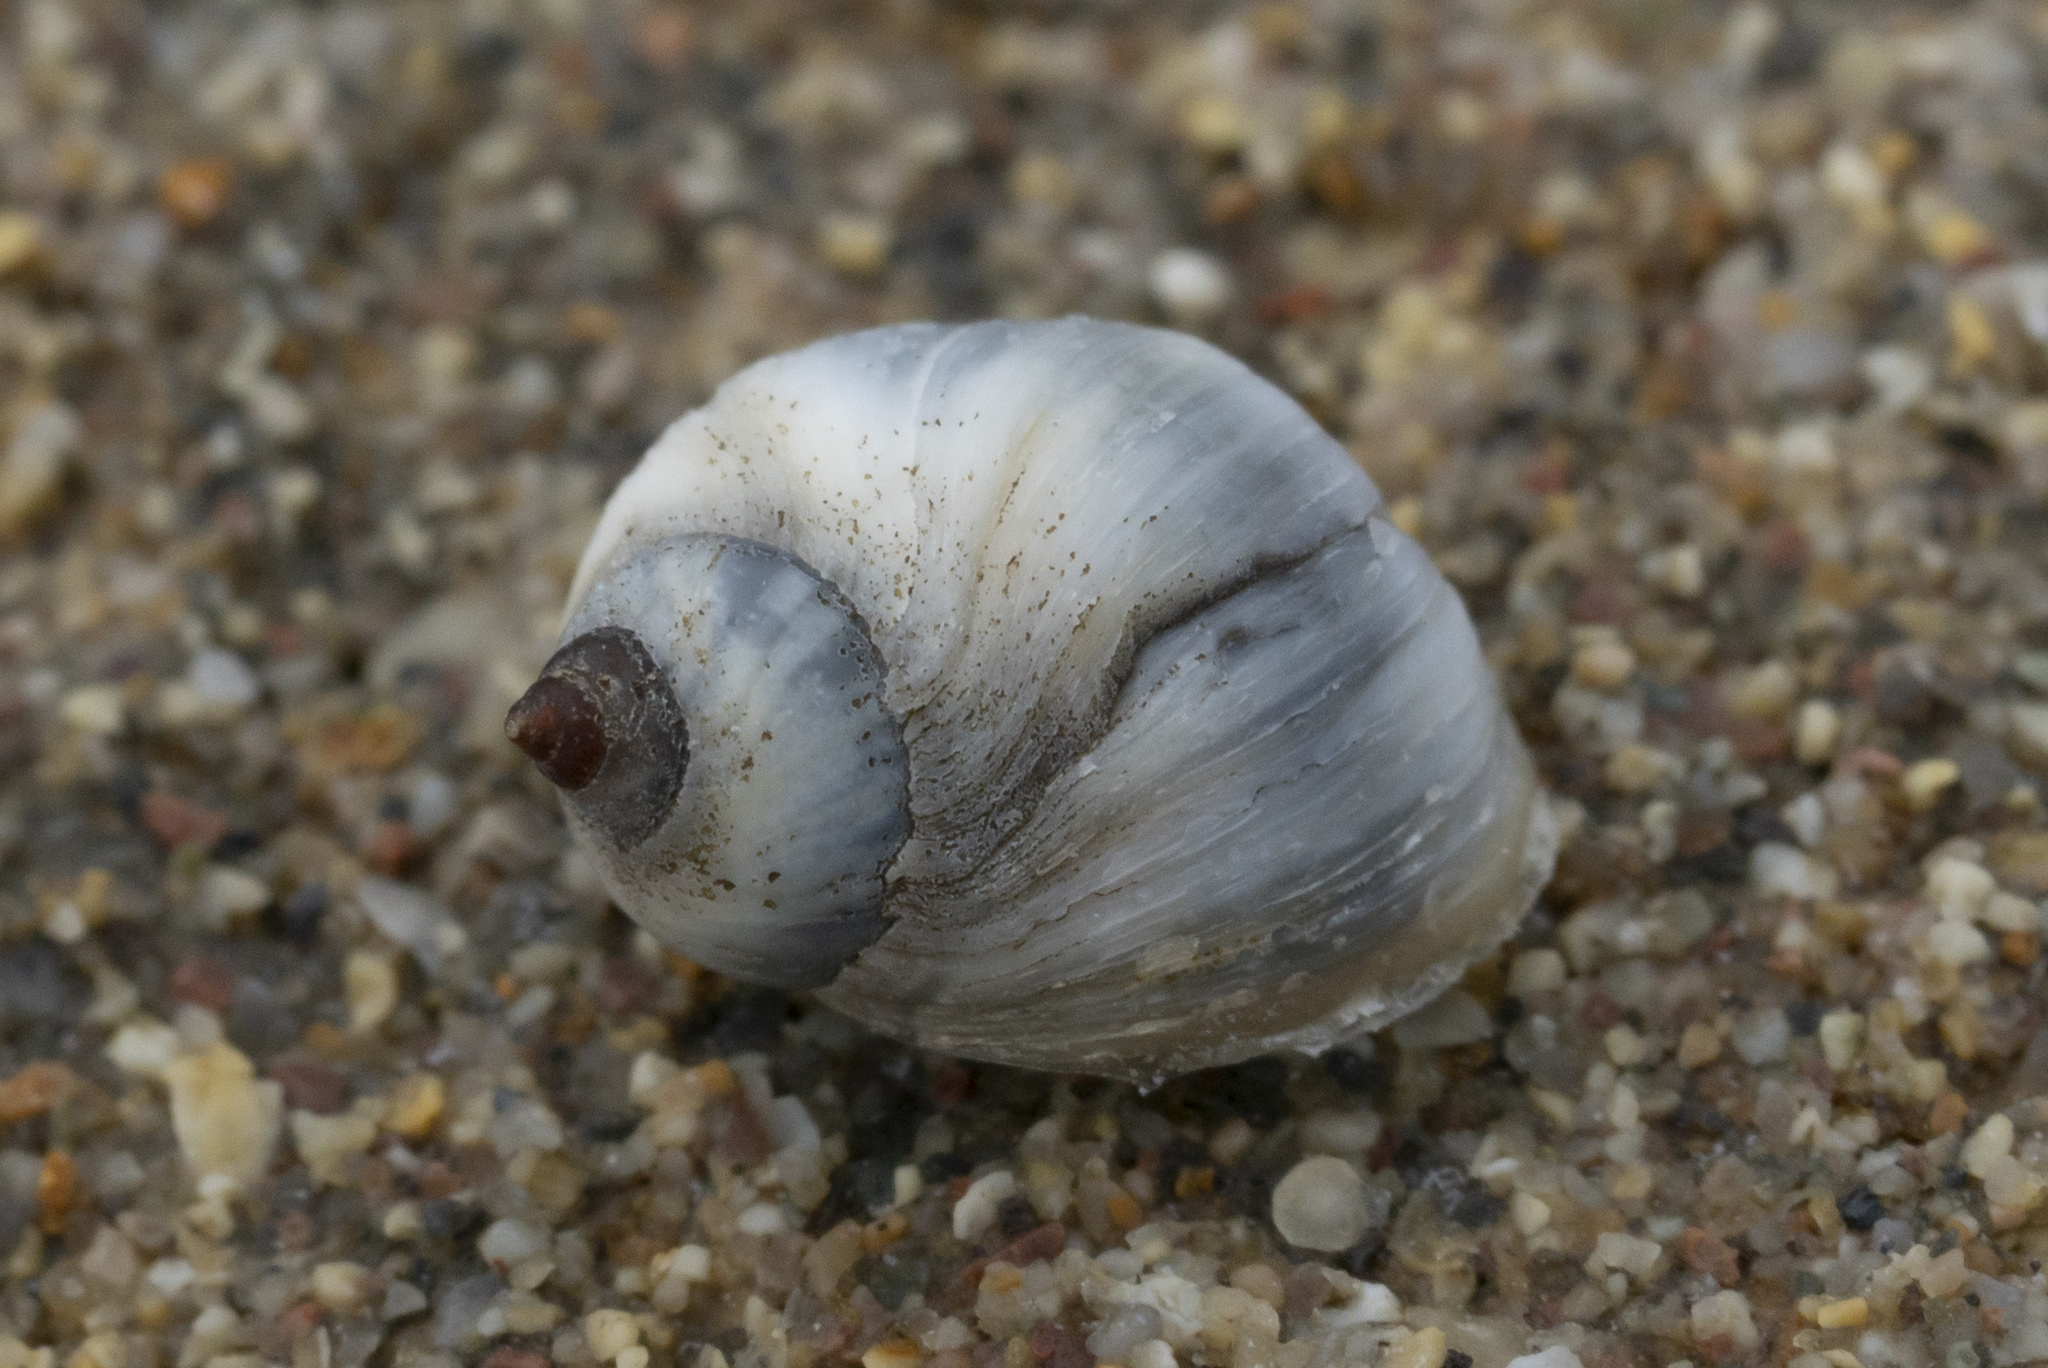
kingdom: Animalia
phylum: Mollusca
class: Gastropoda
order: Littorinimorpha
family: Littorinidae
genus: Melarhaphe
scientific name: Melarhaphe neritoides
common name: Small periwinkle
